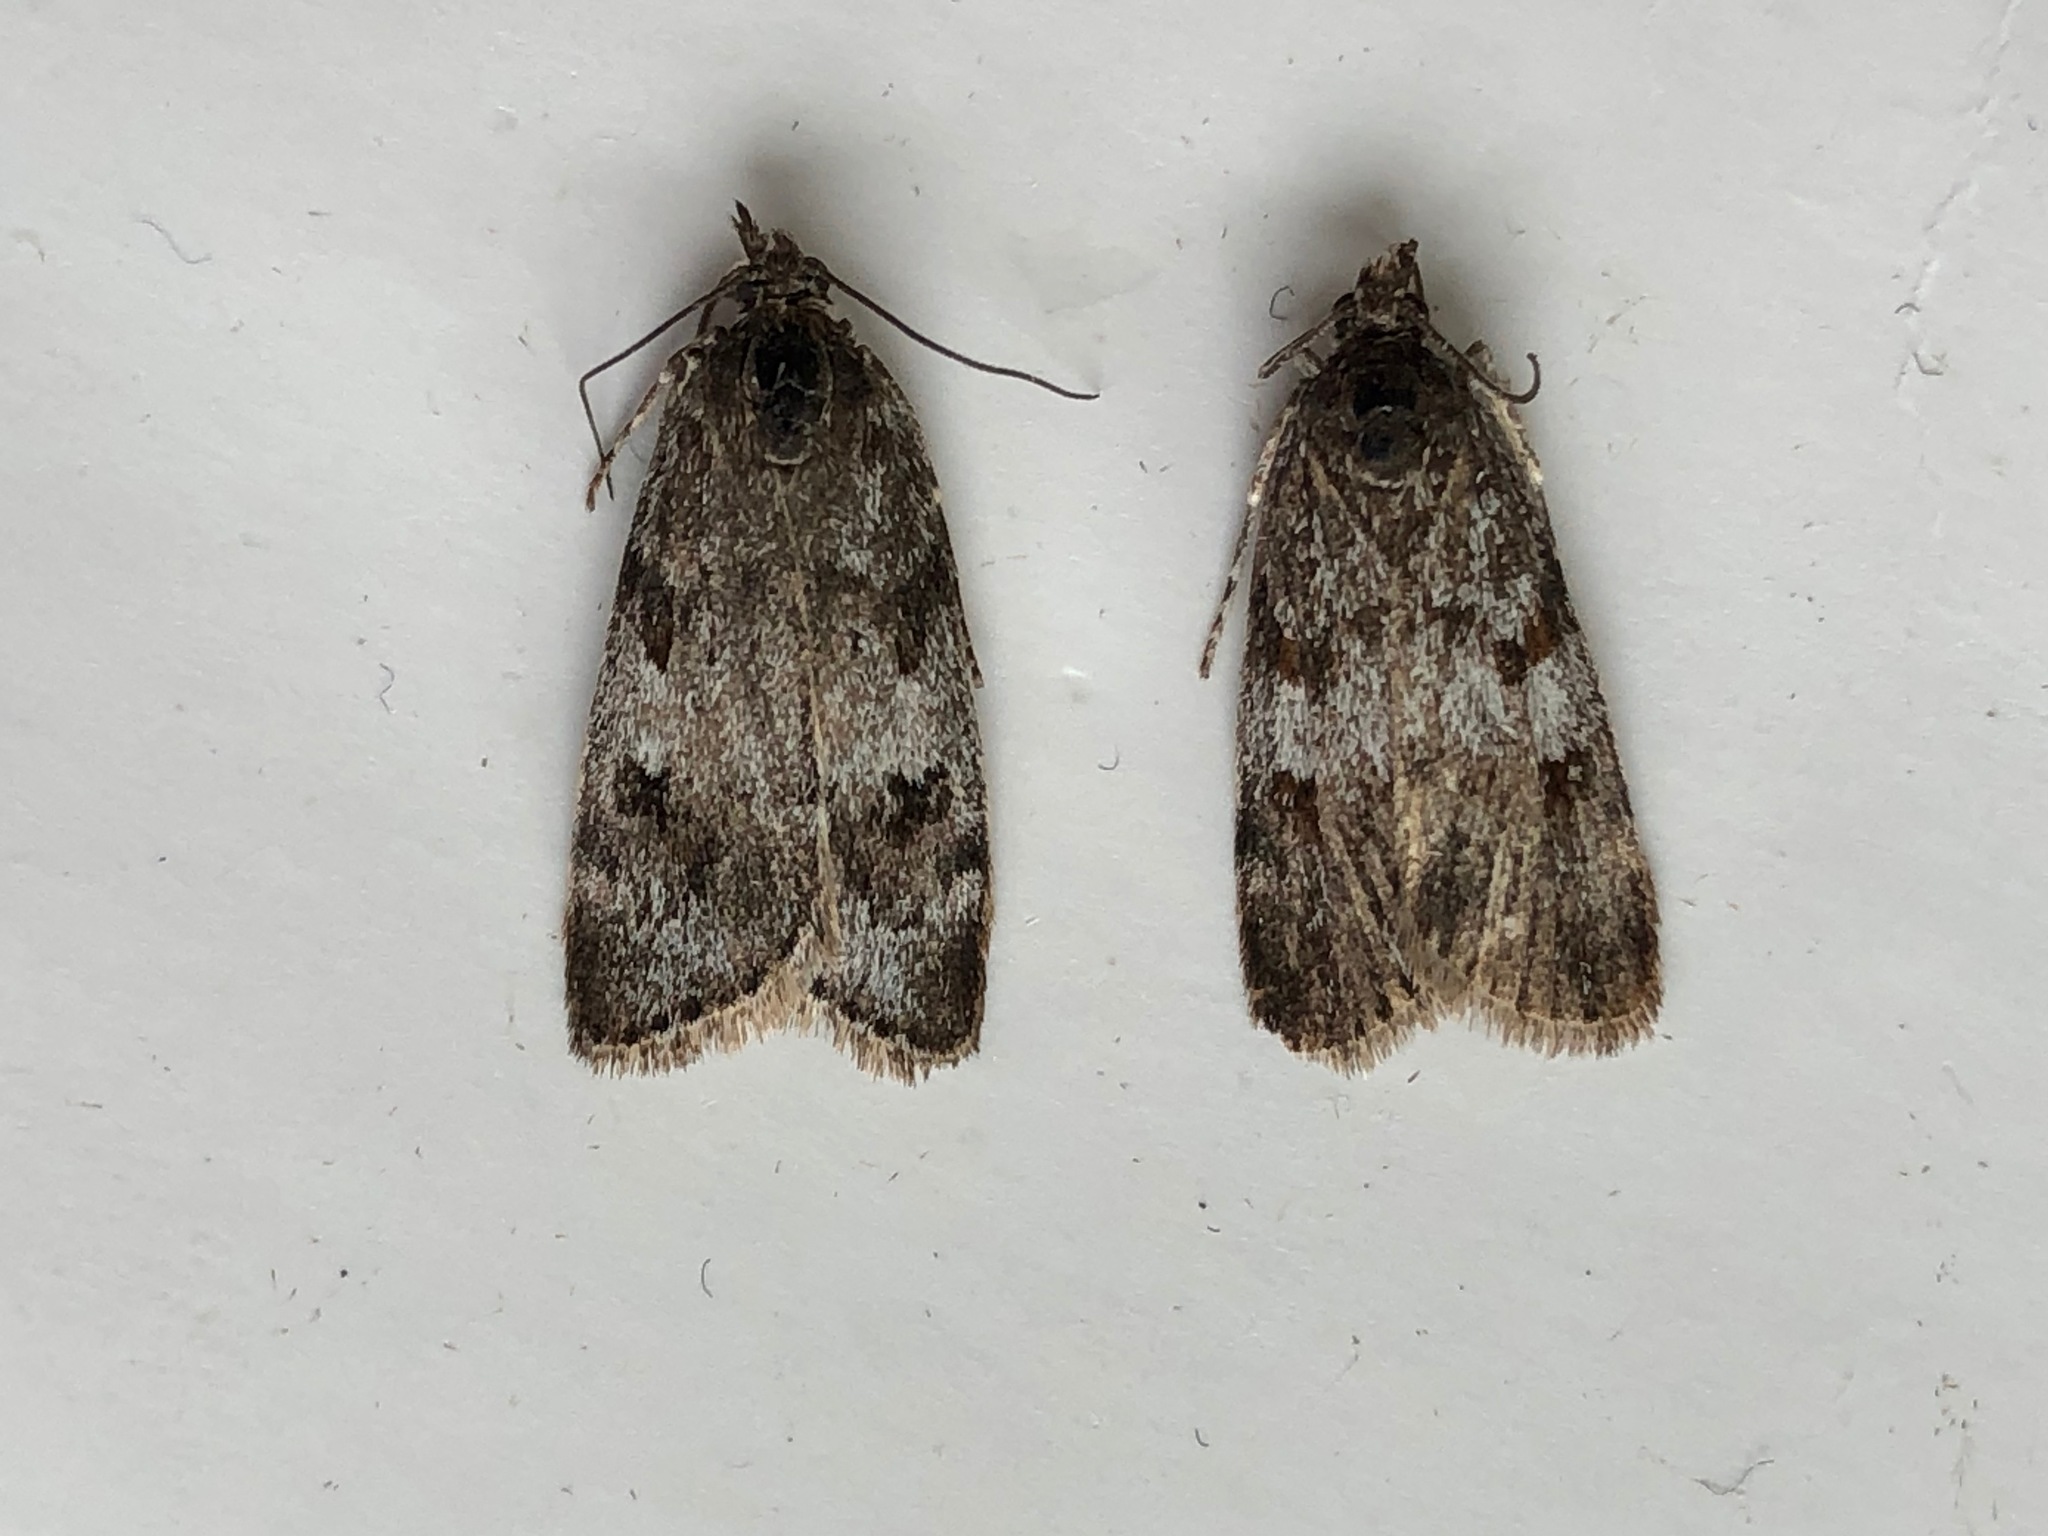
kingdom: Animalia
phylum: Arthropoda
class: Insecta
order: Lepidoptera
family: Crambidae
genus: Gesneria
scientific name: Gesneria centuriella
